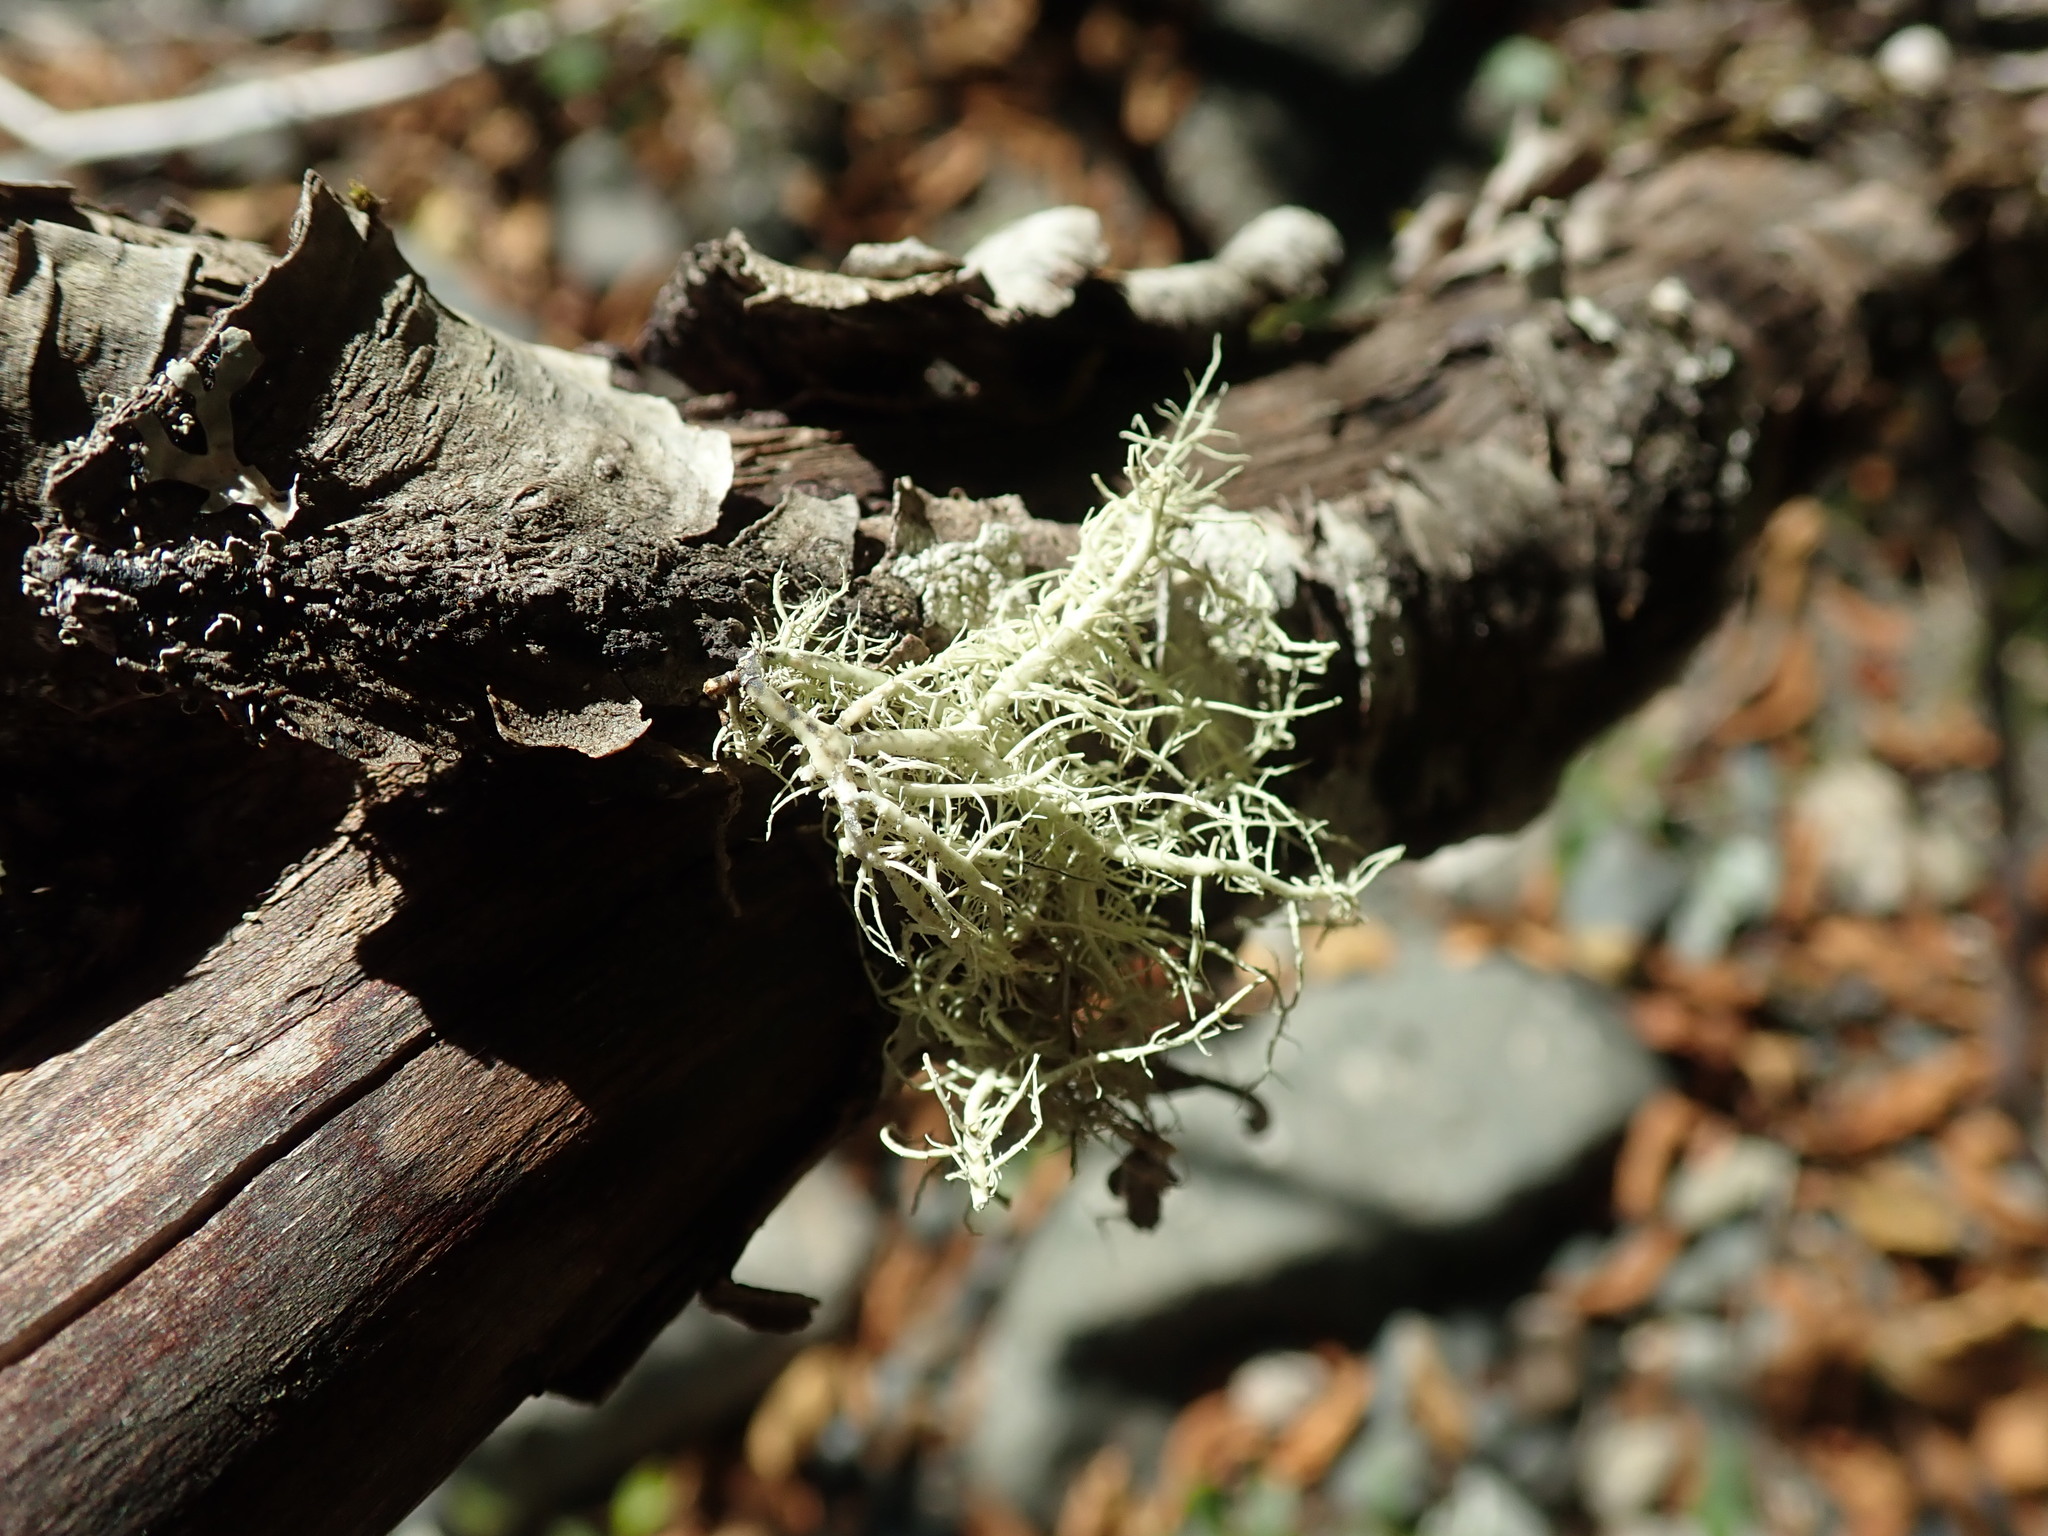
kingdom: Fungi
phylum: Ascomycota
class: Lecanoromycetes
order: Lecanorales
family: Parmeliaceae
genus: Usnea
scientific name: Usnea cornuta
